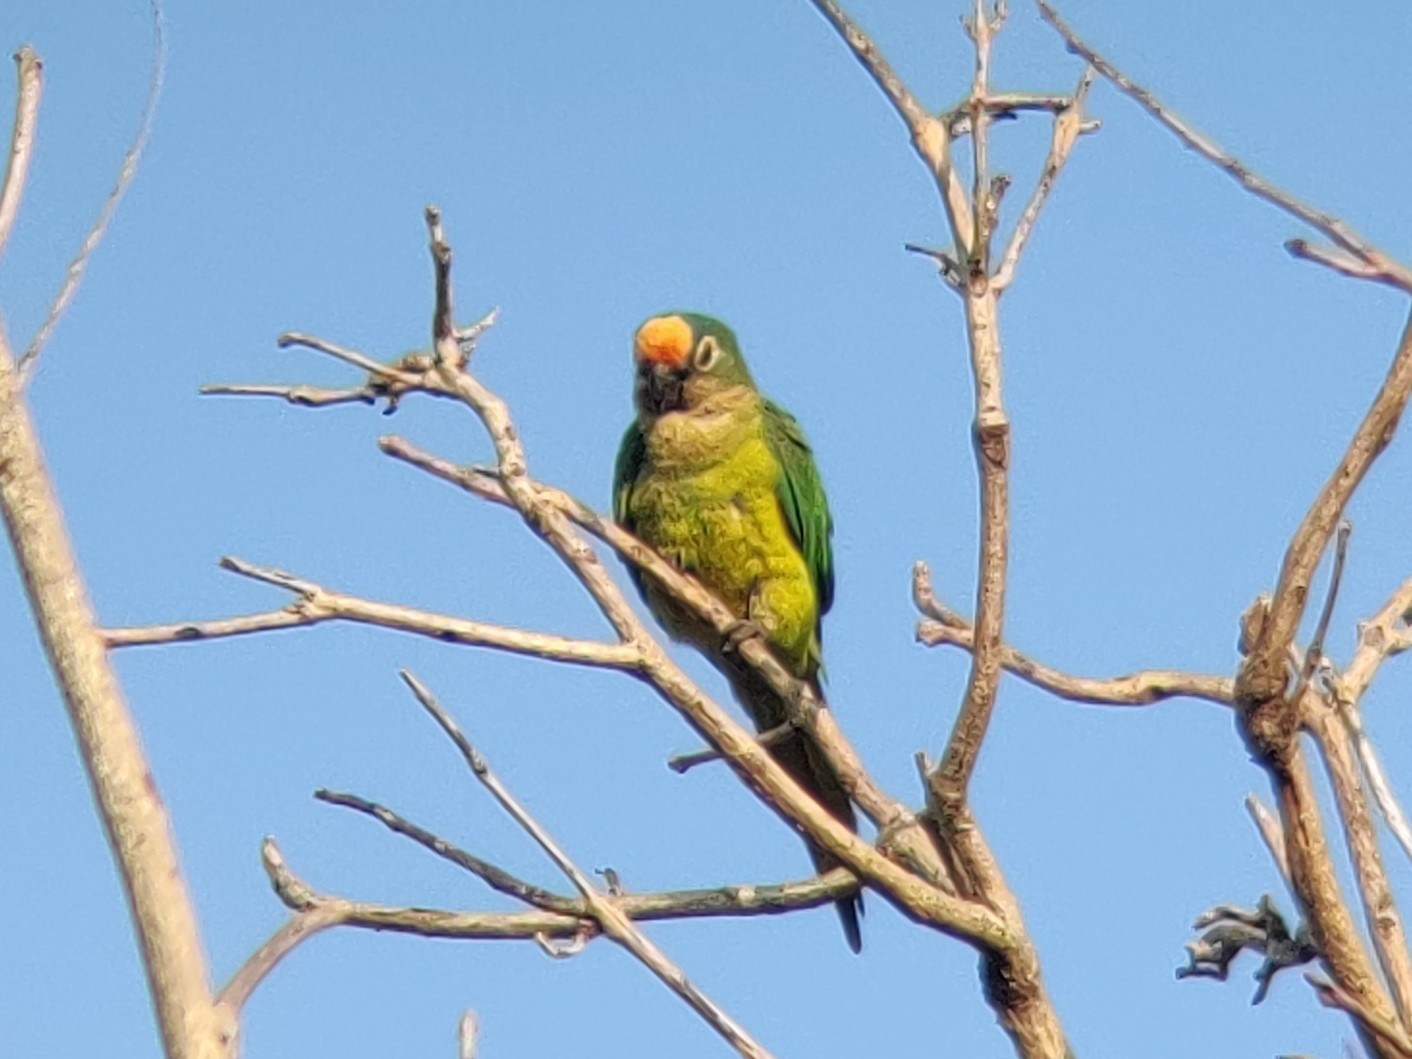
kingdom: Animalia
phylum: Chordata
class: Aves
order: Psittaciformes
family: Psittacidae
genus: Aratinga
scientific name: Aratinga aurea
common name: Peach-fronted parakeet
